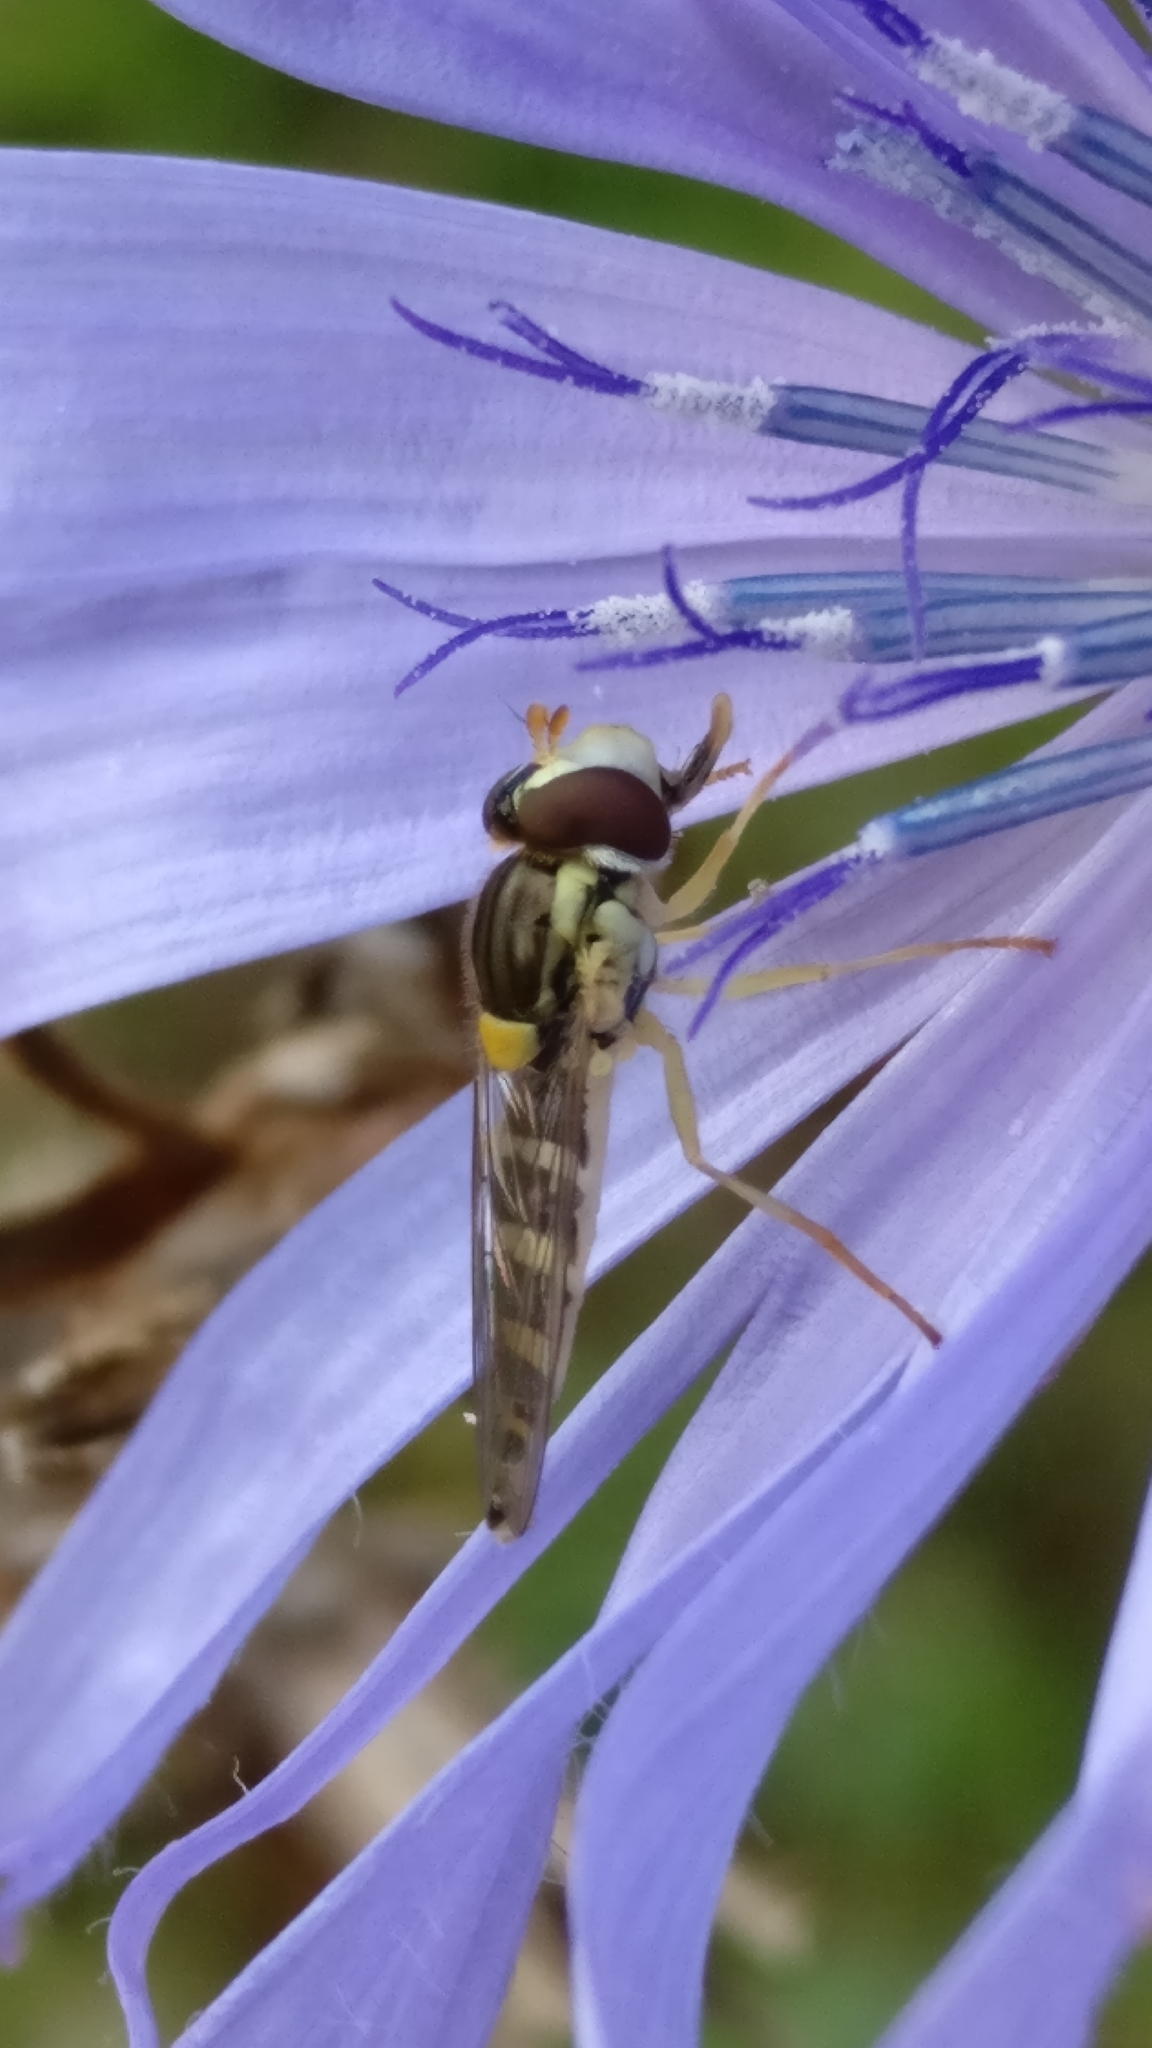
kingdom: Animalia
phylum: Arthropoda
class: Insecta
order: Diptera
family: Syrphidae
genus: Sphaerophoria
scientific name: Sphaerophoria
